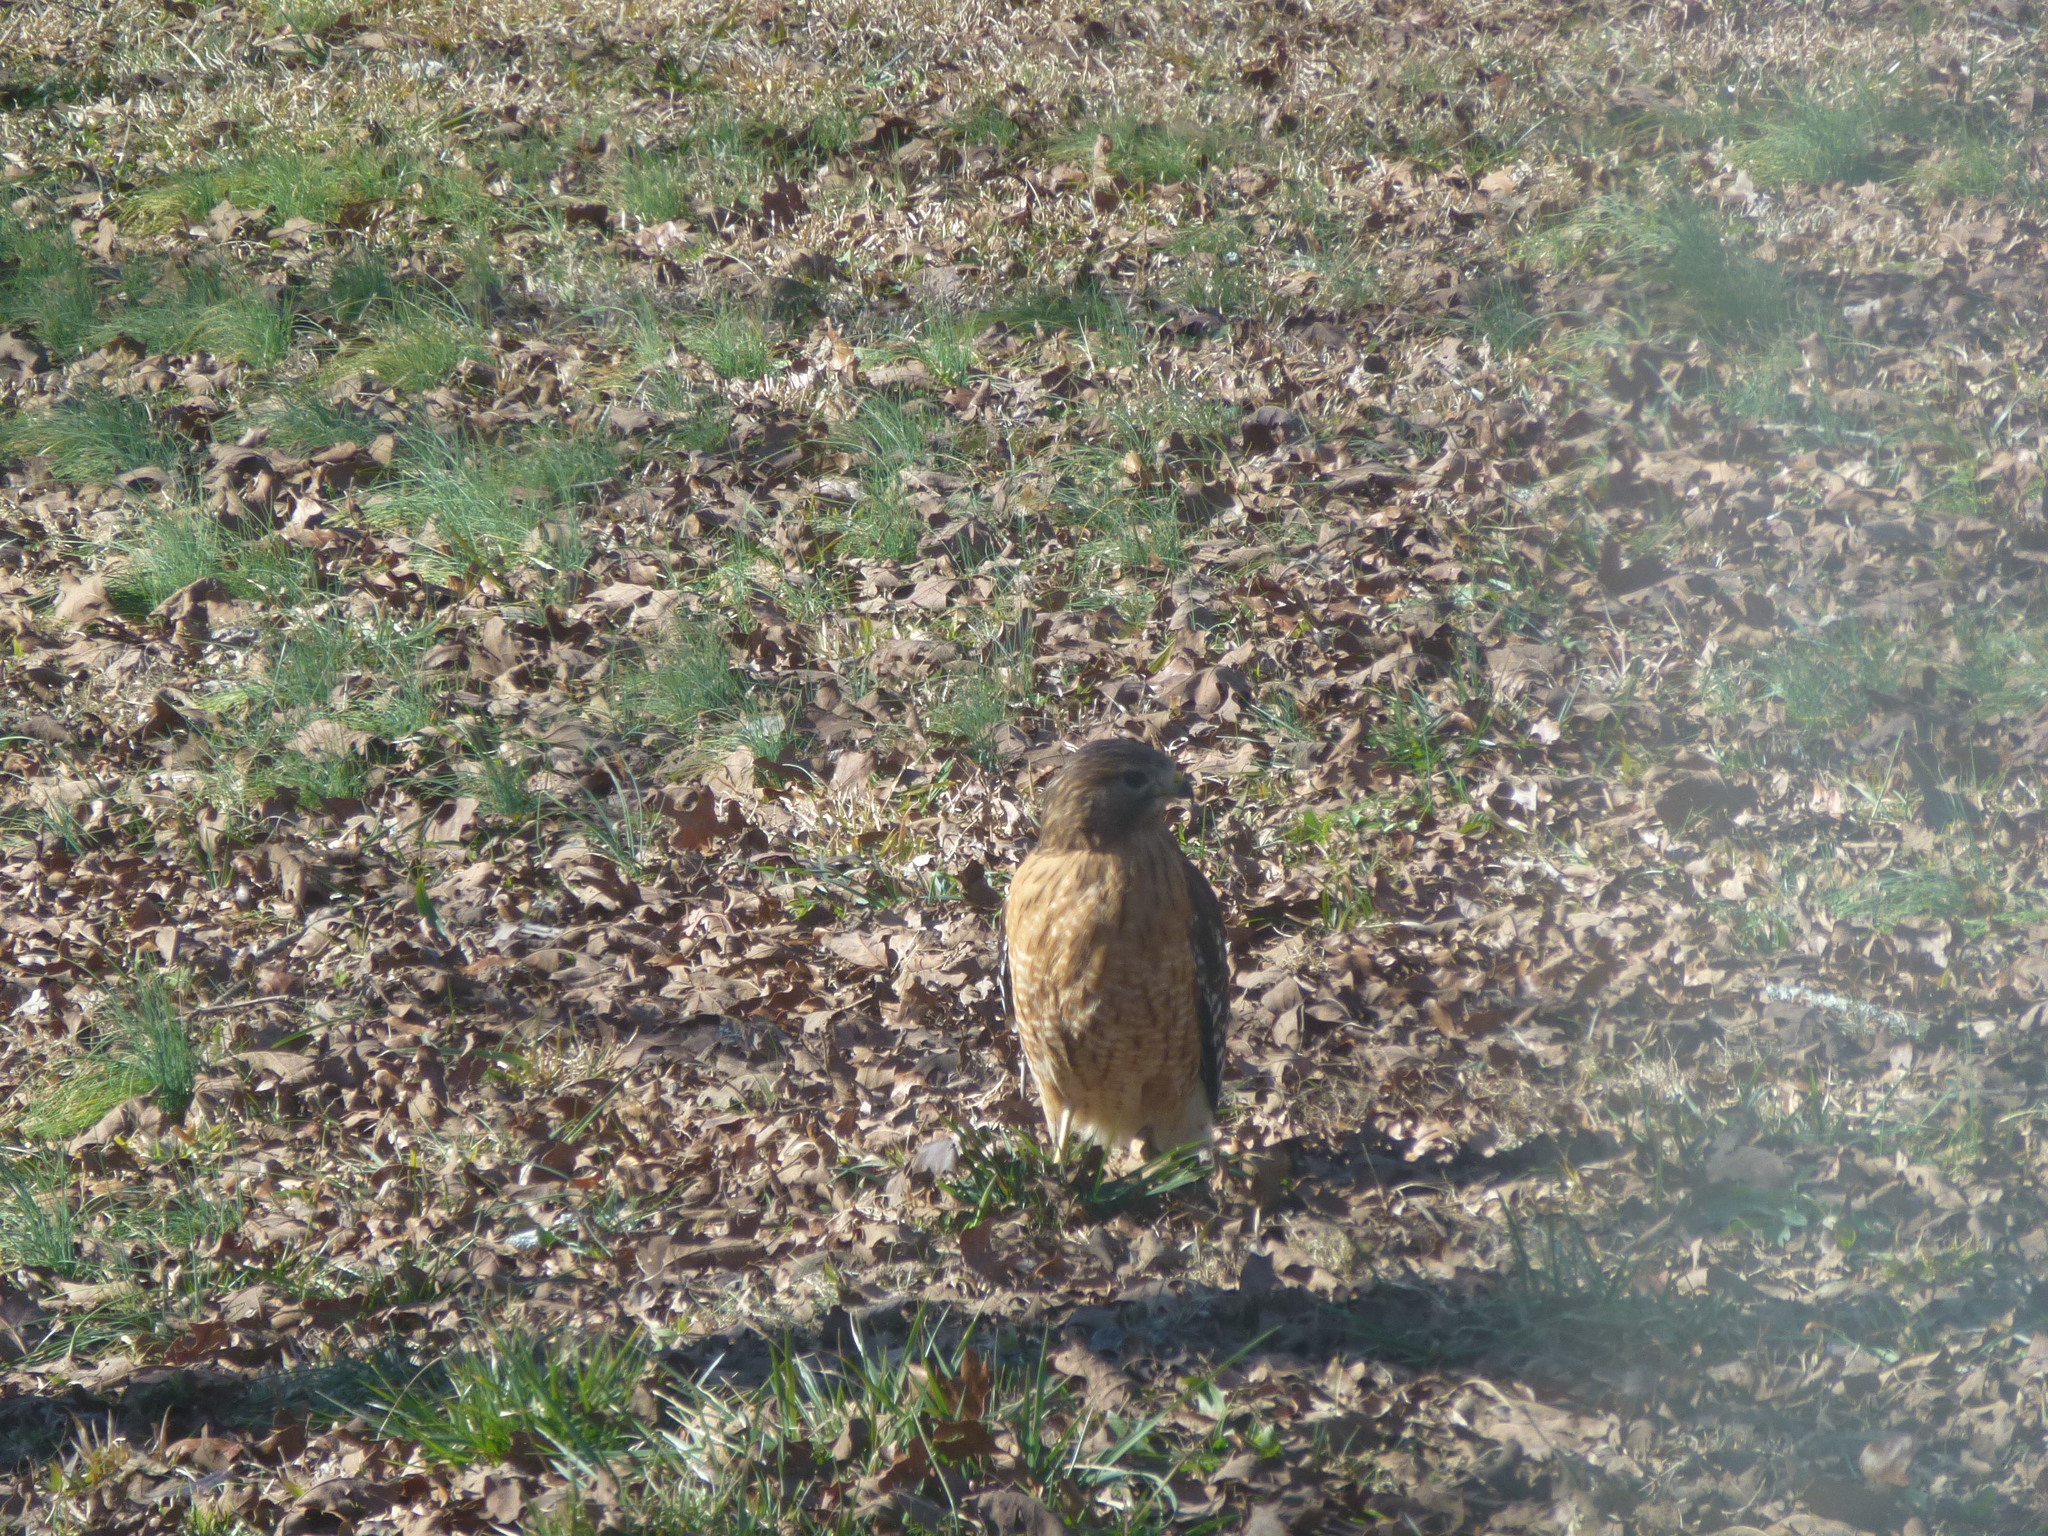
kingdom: Animalia
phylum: Chordata
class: Aves
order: Accipitriformes
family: Accipitridae
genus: Buteo
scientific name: Buteo lineatus
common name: Red-shouldered hawk
